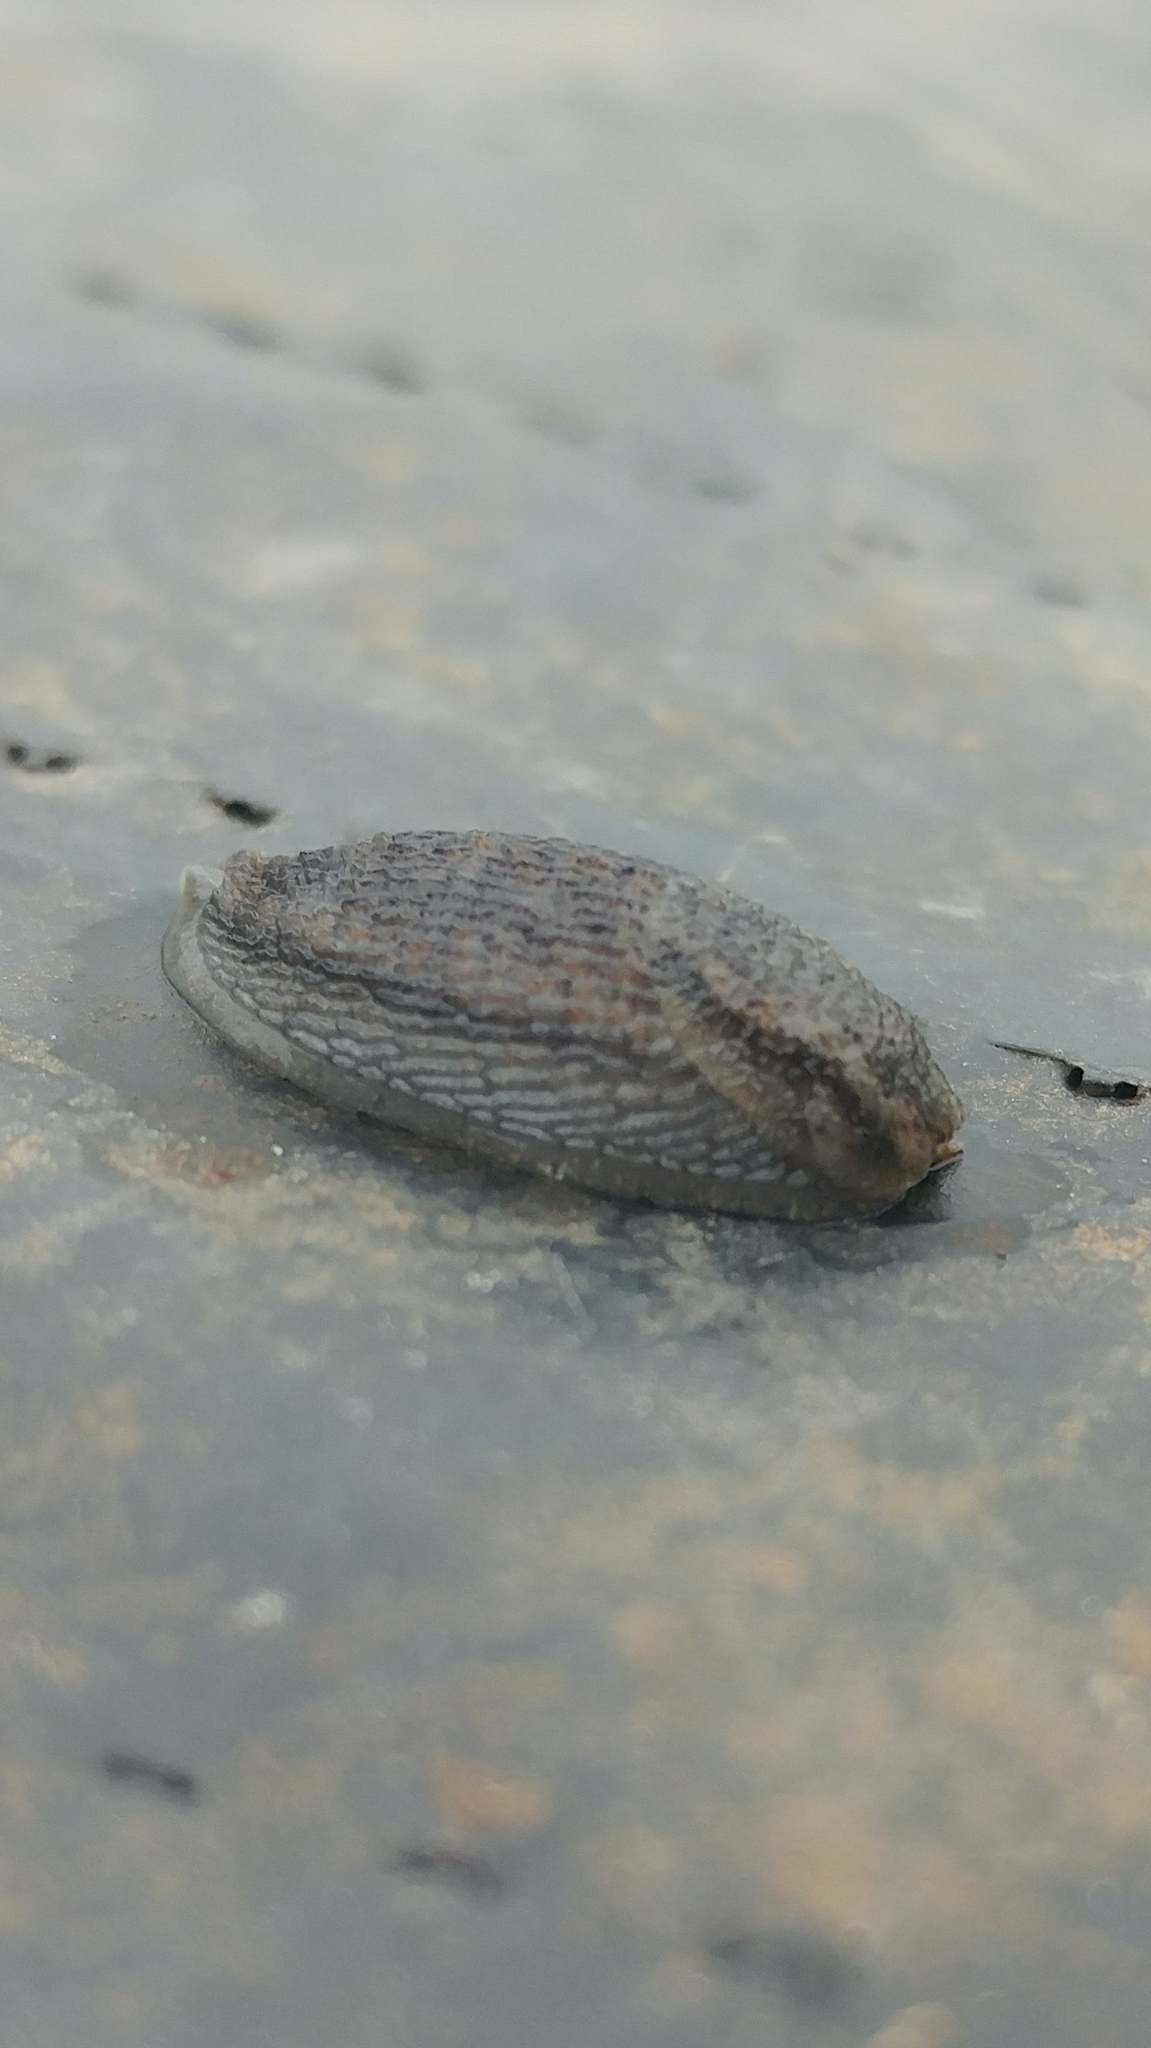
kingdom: Animalia
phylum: Mollusca
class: Gastropoda
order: Stylommatophora
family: Arionidae
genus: Arion
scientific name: Arion fasciatus
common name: Orange-banded arion
